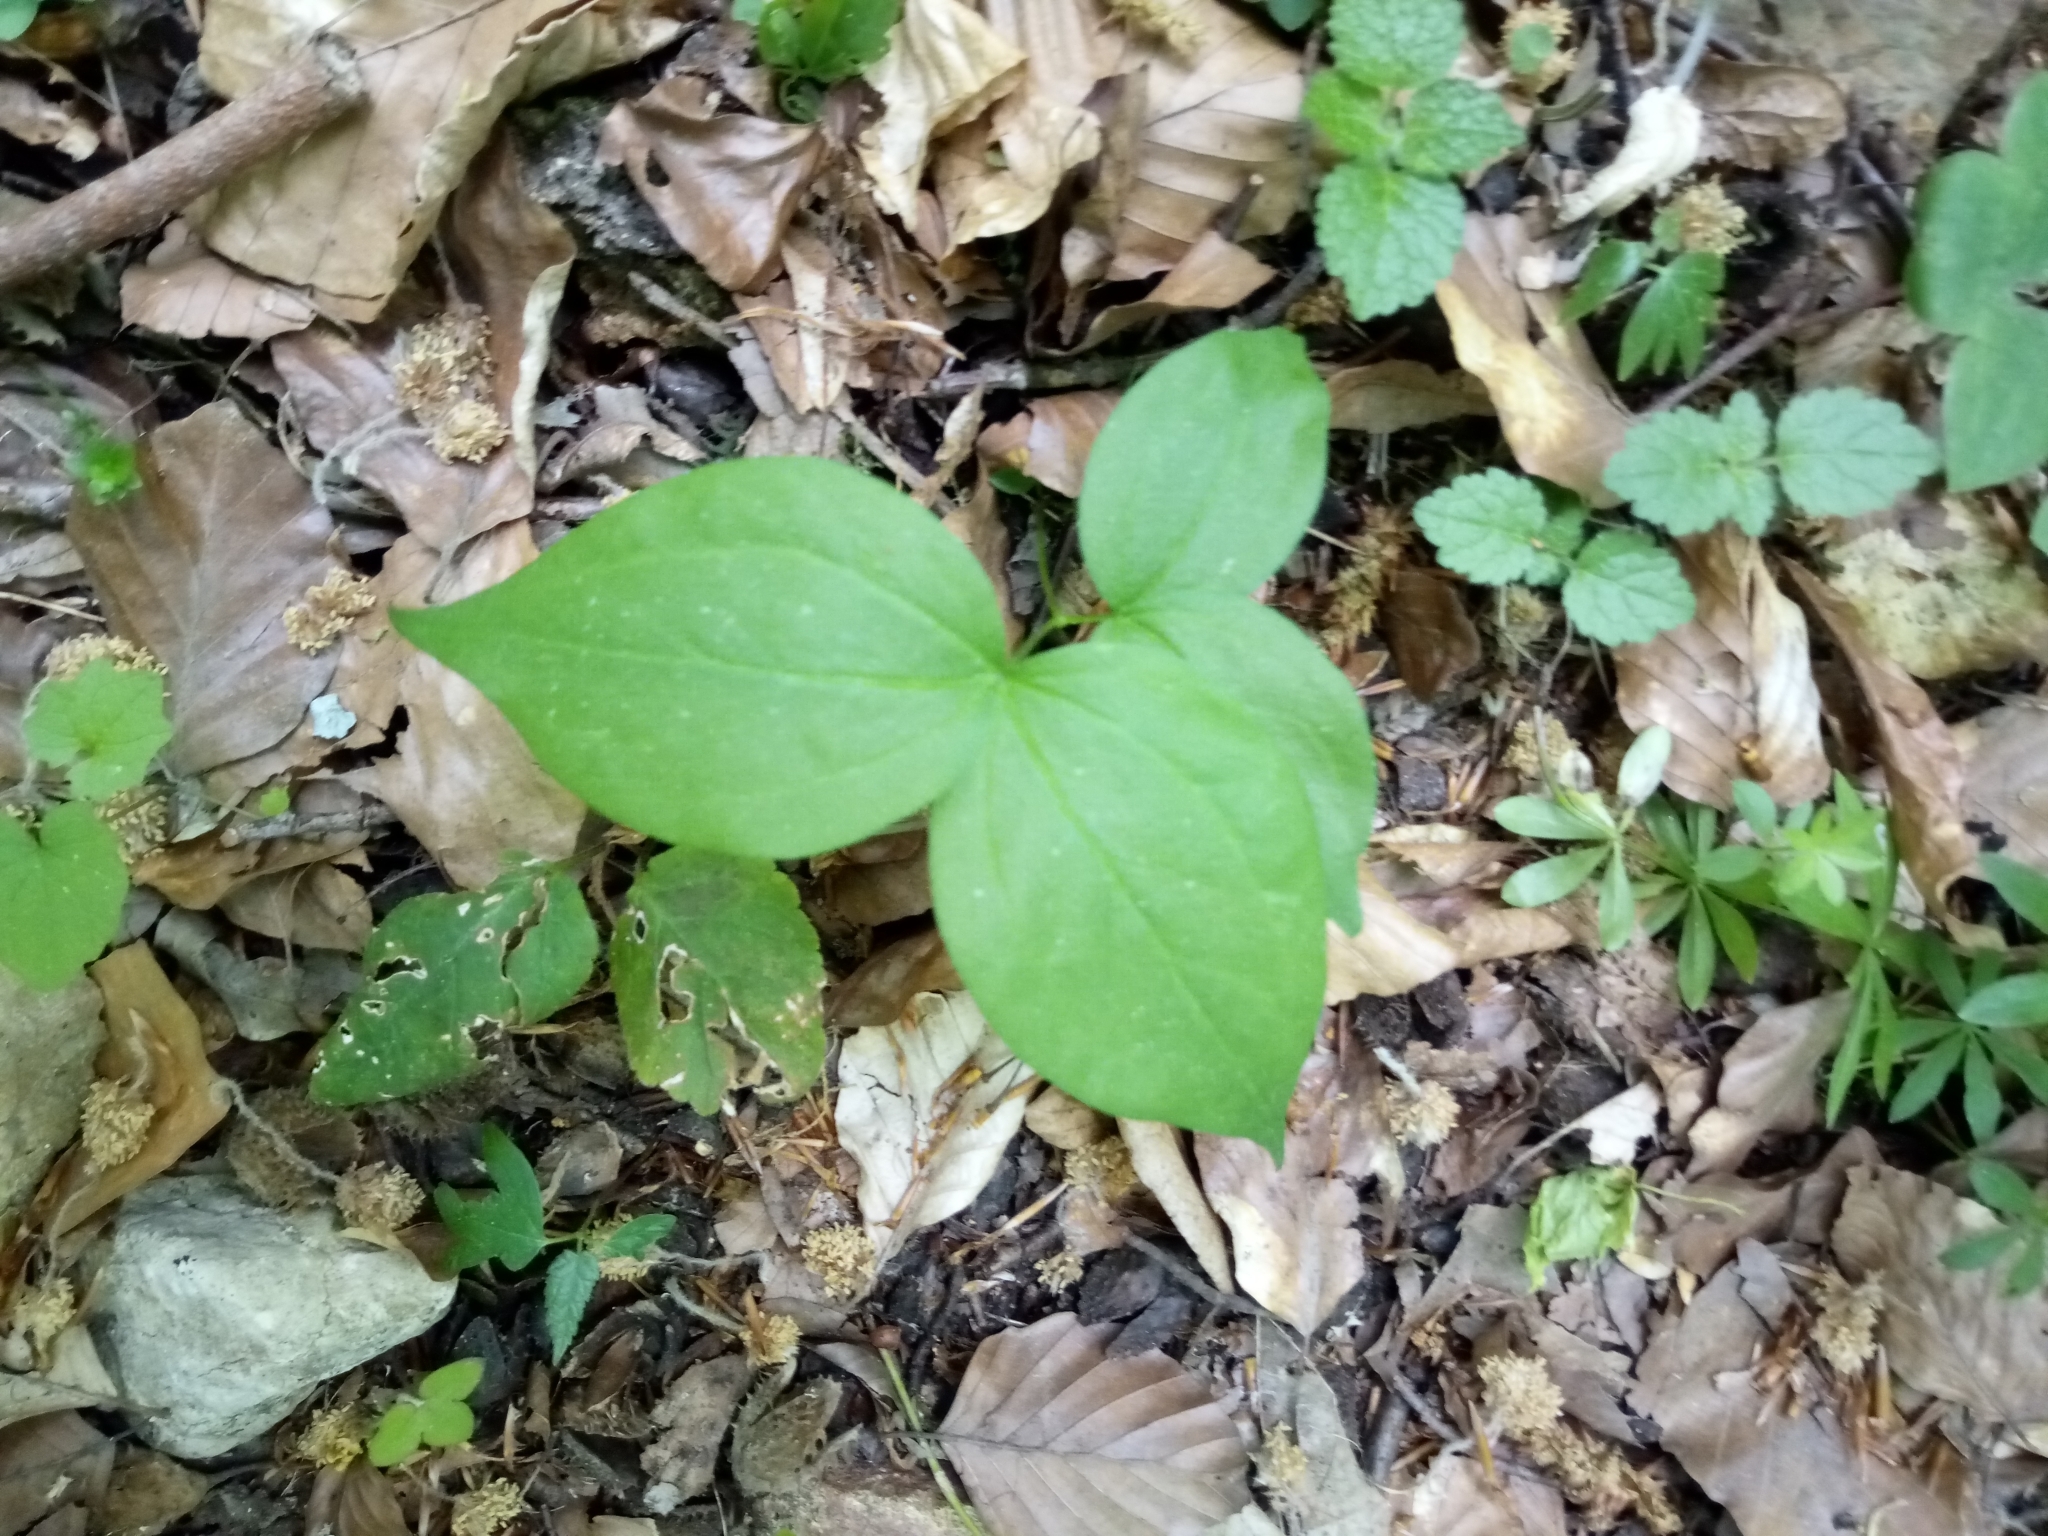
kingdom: Plantae
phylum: Tracheophyta
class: Magnoliopsida
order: Fabales
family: Fabaceae
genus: Lathyrus
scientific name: Lathyrus vernus
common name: Spring pea
